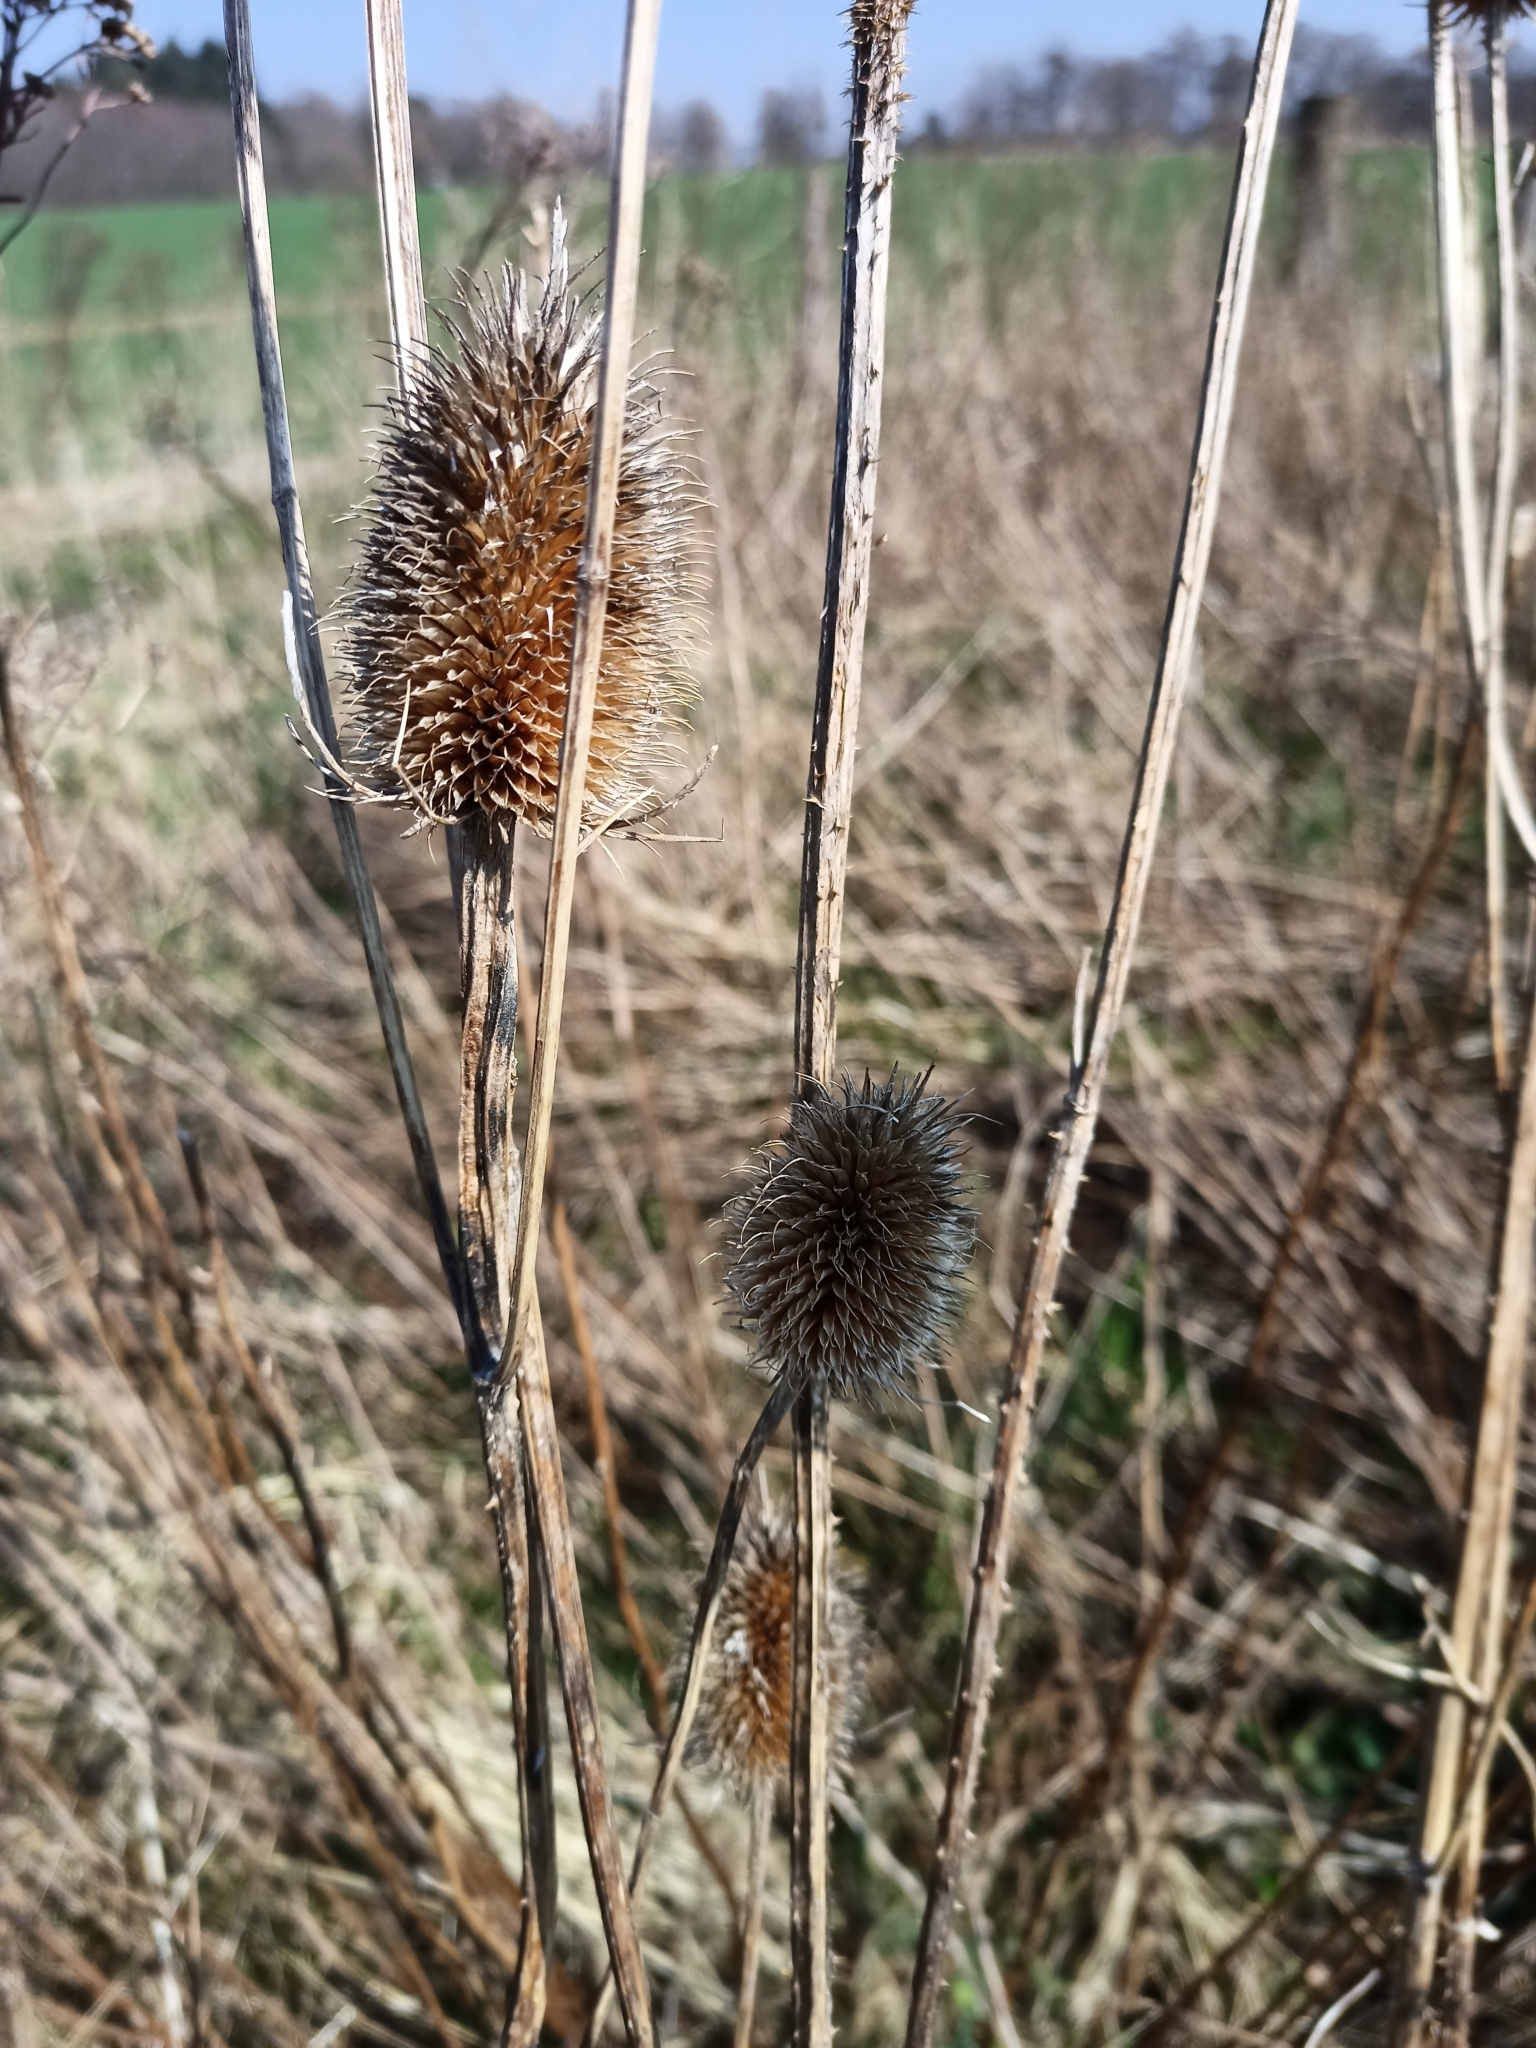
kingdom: Plantae
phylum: Tracheophyta
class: Magnoliopsida
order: Dipsacales
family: Caprifoliaceae
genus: Dipsacus
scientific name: Dipsacus fullonum
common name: Teasel
